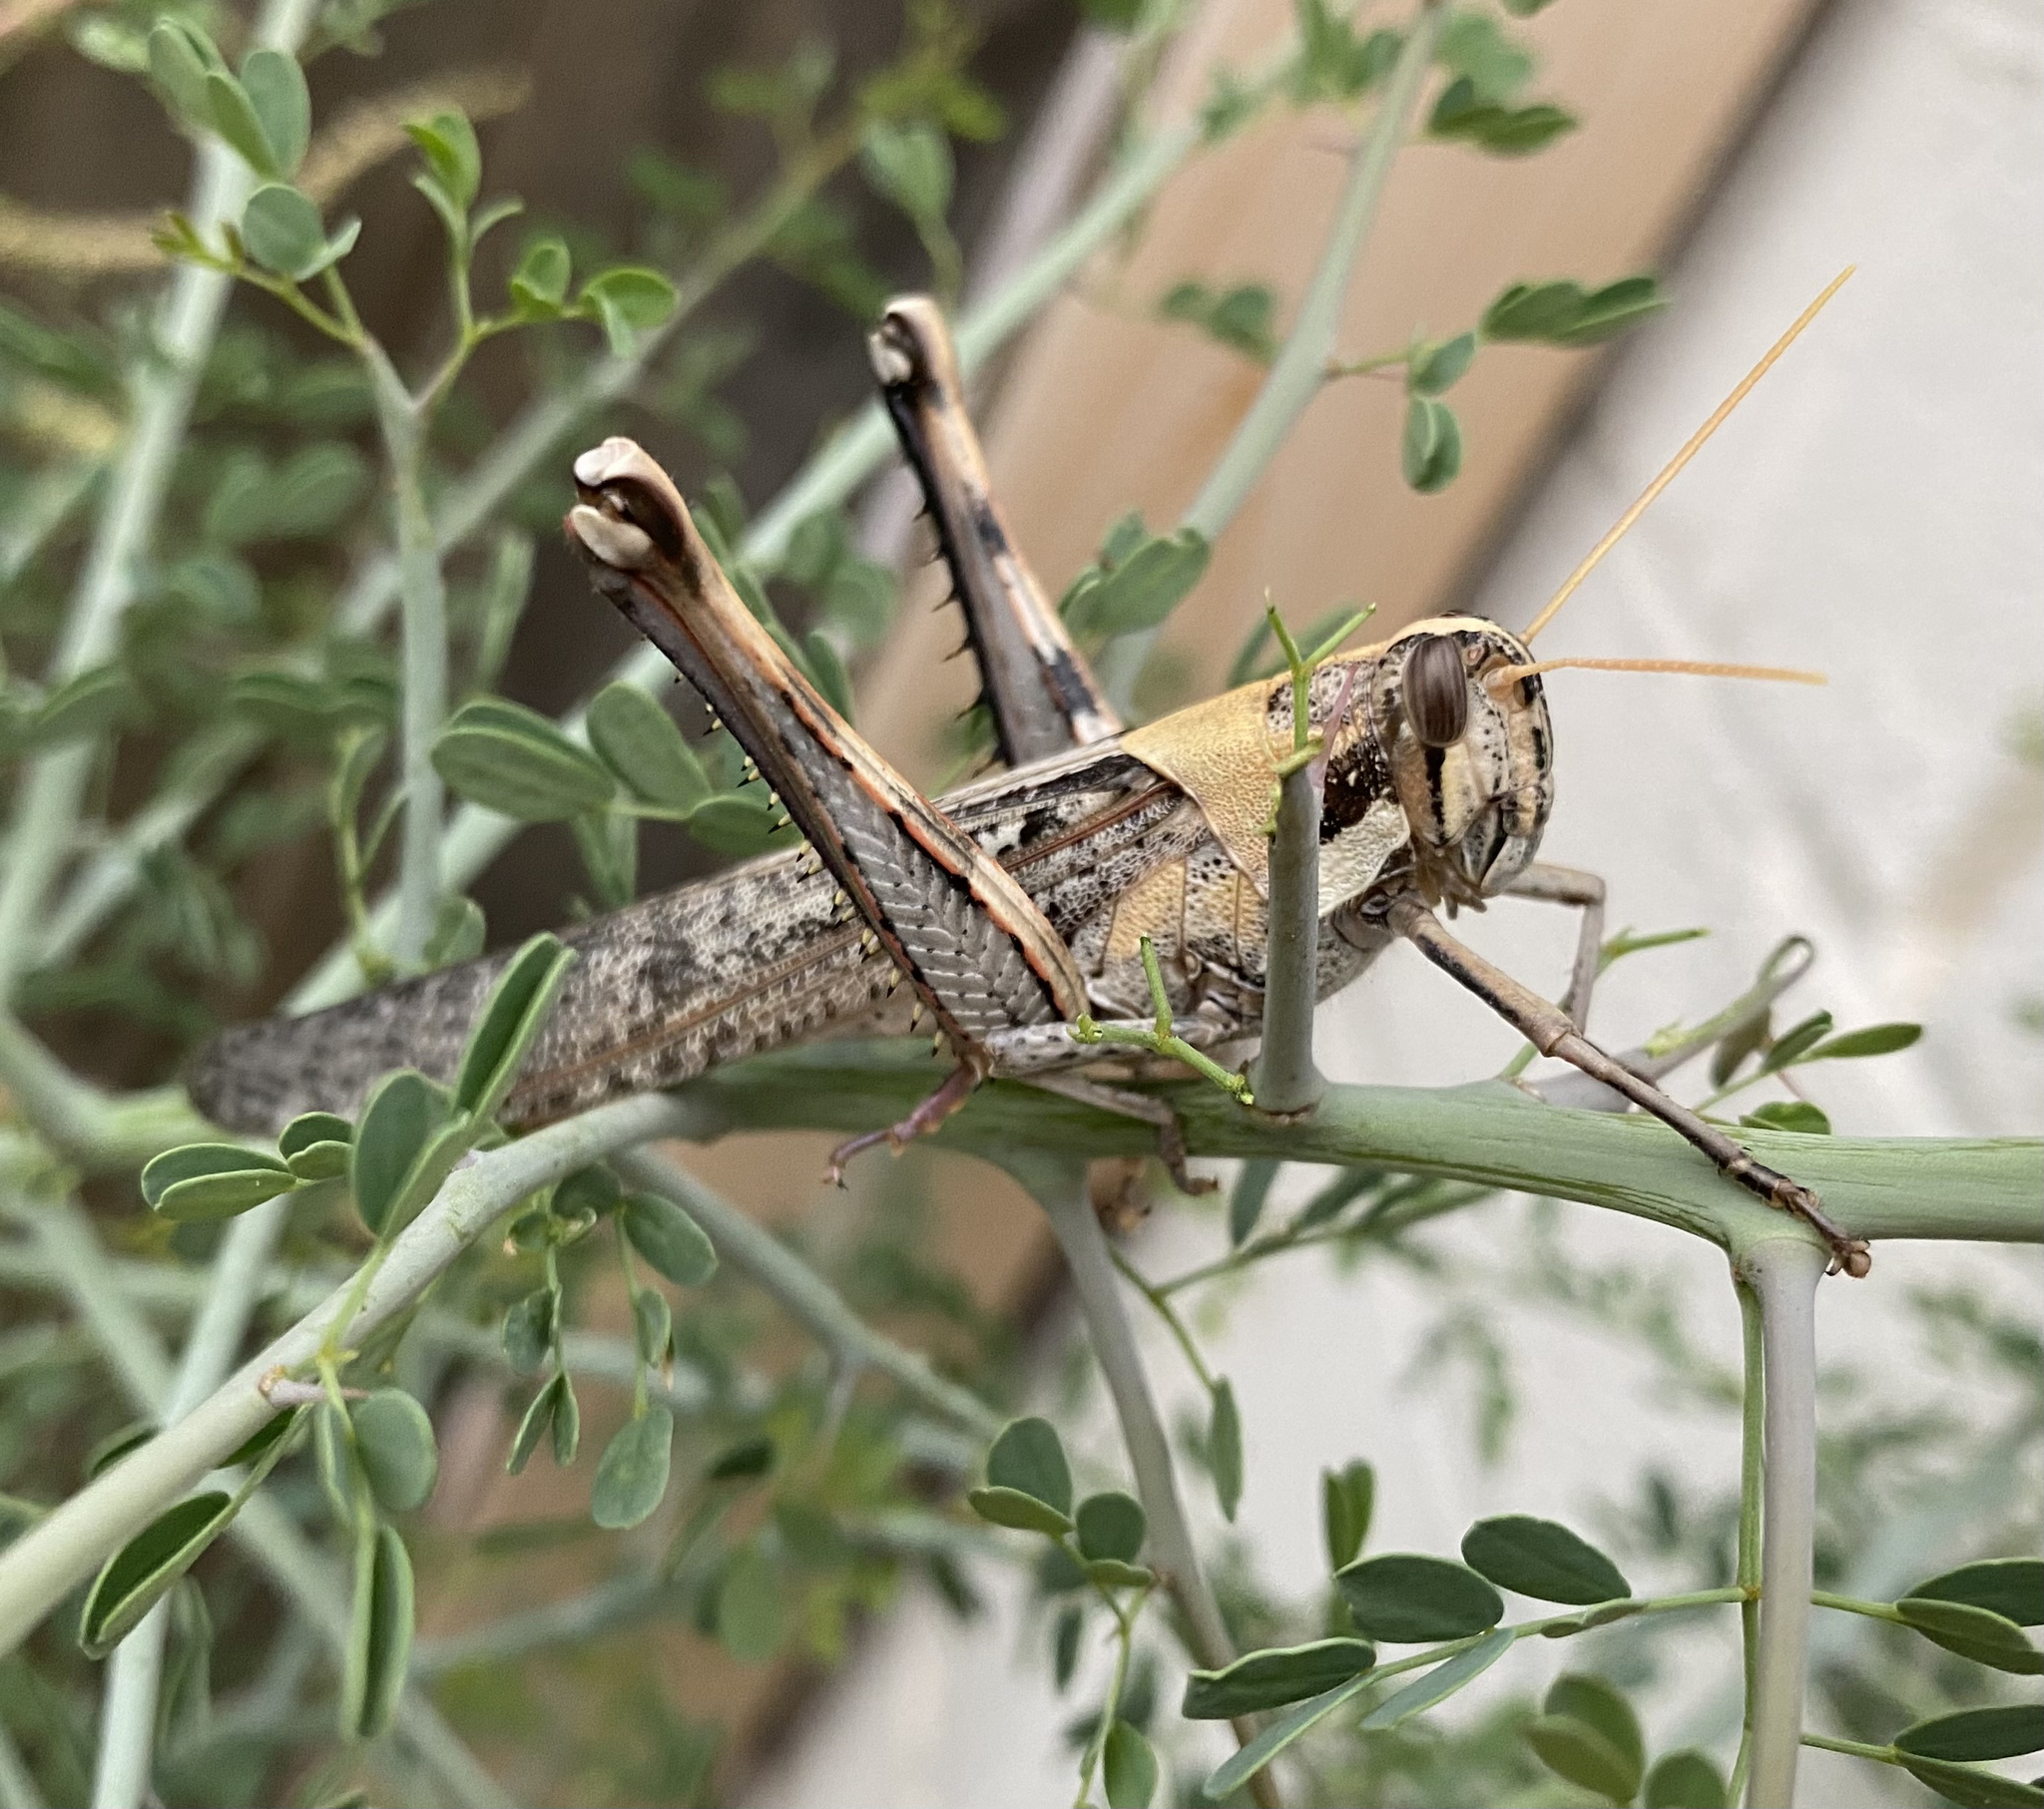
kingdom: Animalia
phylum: Arthropoda
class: Insecta
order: Orthoptera
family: Acrididae
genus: Schistocerca
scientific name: Schistocerca nitens
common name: Vagrant grasshopper
